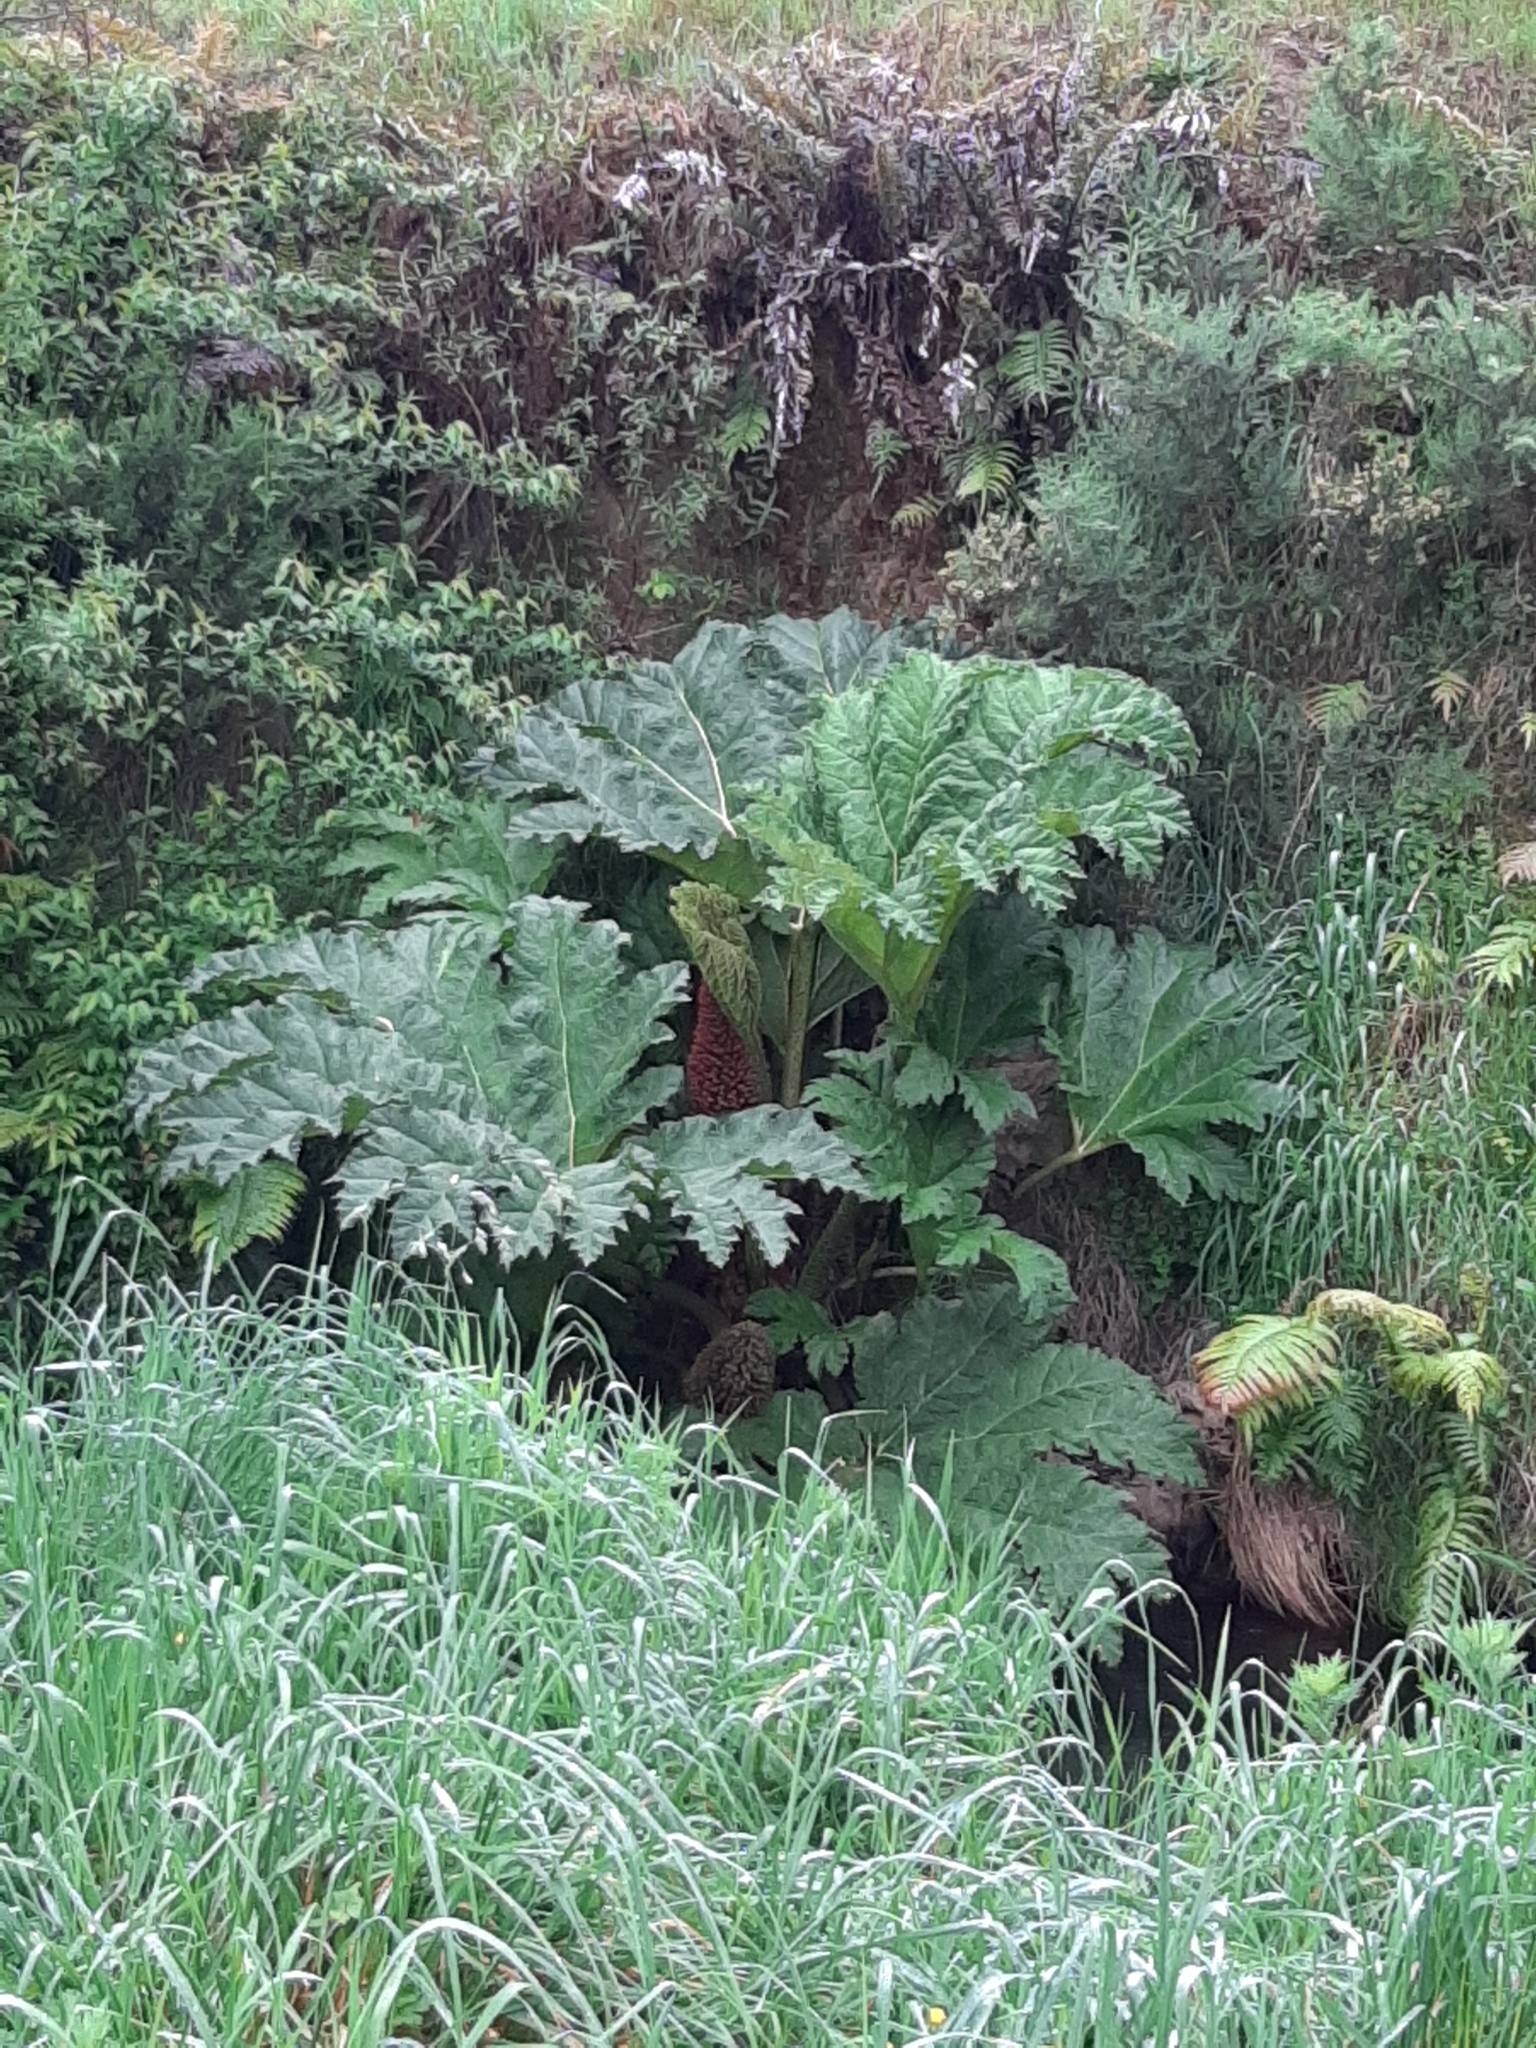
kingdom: Plantae
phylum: Tracheophyta
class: Magnoliopsida
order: Gunnerales
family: Gunneraceae
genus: Gunnera
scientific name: Gunnera tinctoria
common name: Giant-rhubarb
